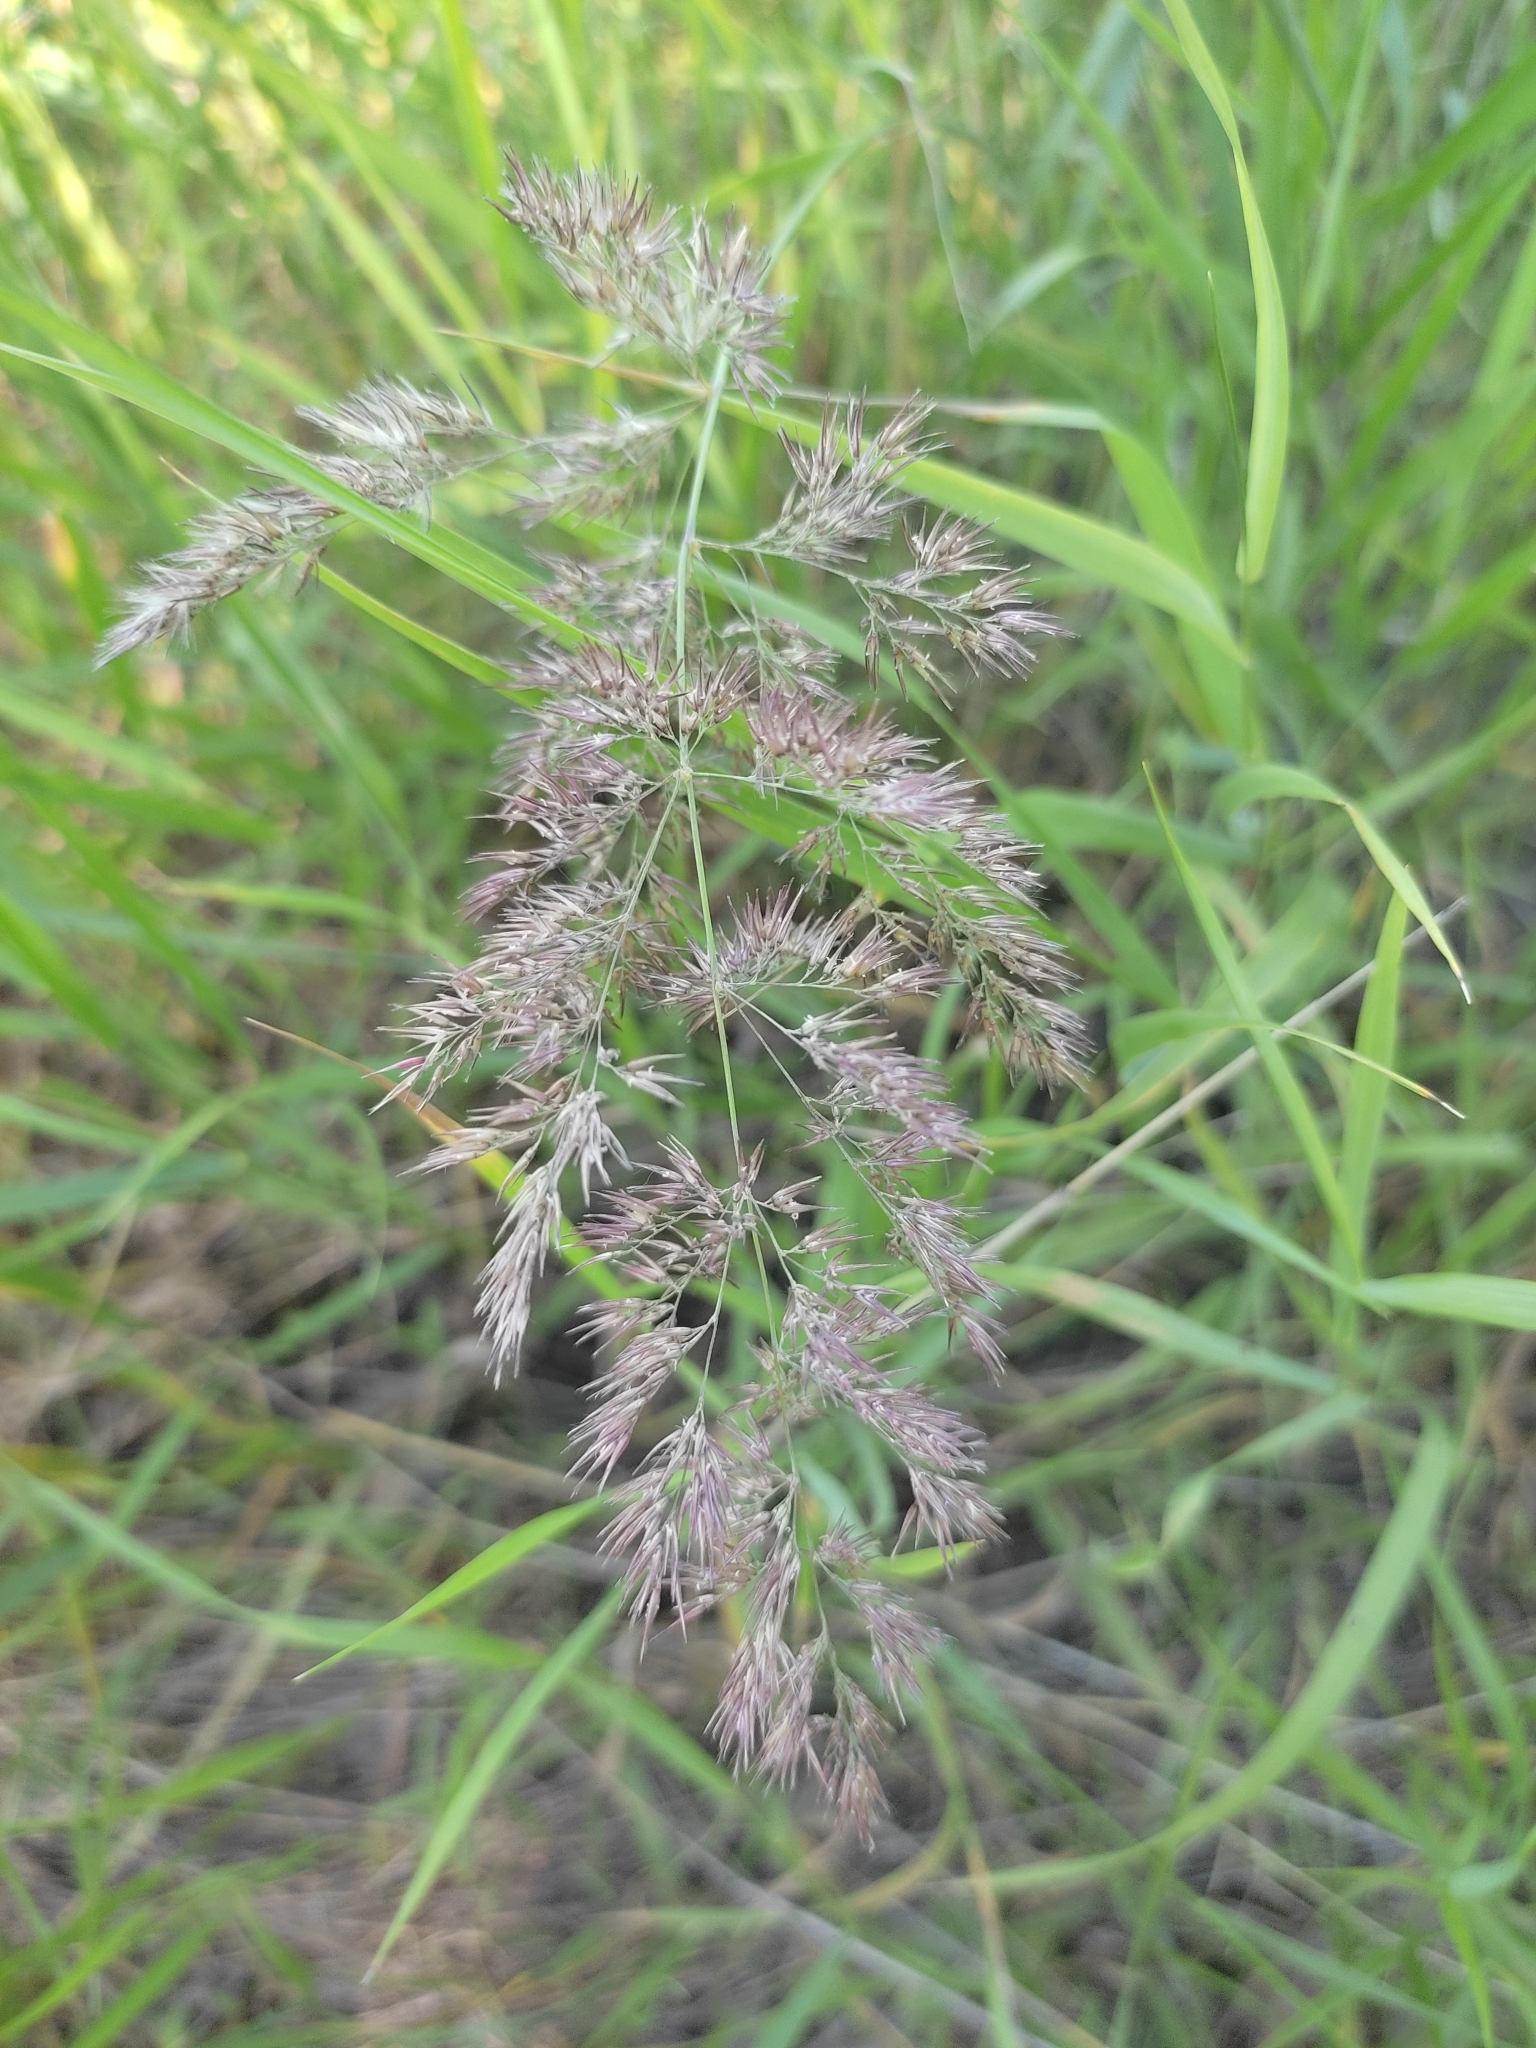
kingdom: Plantae
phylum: Tracheophyta
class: Liliopsida
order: Poales
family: Poaceae
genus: Calamagrostis
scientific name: Calamagrostis epigejos
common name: Wood small-reed
